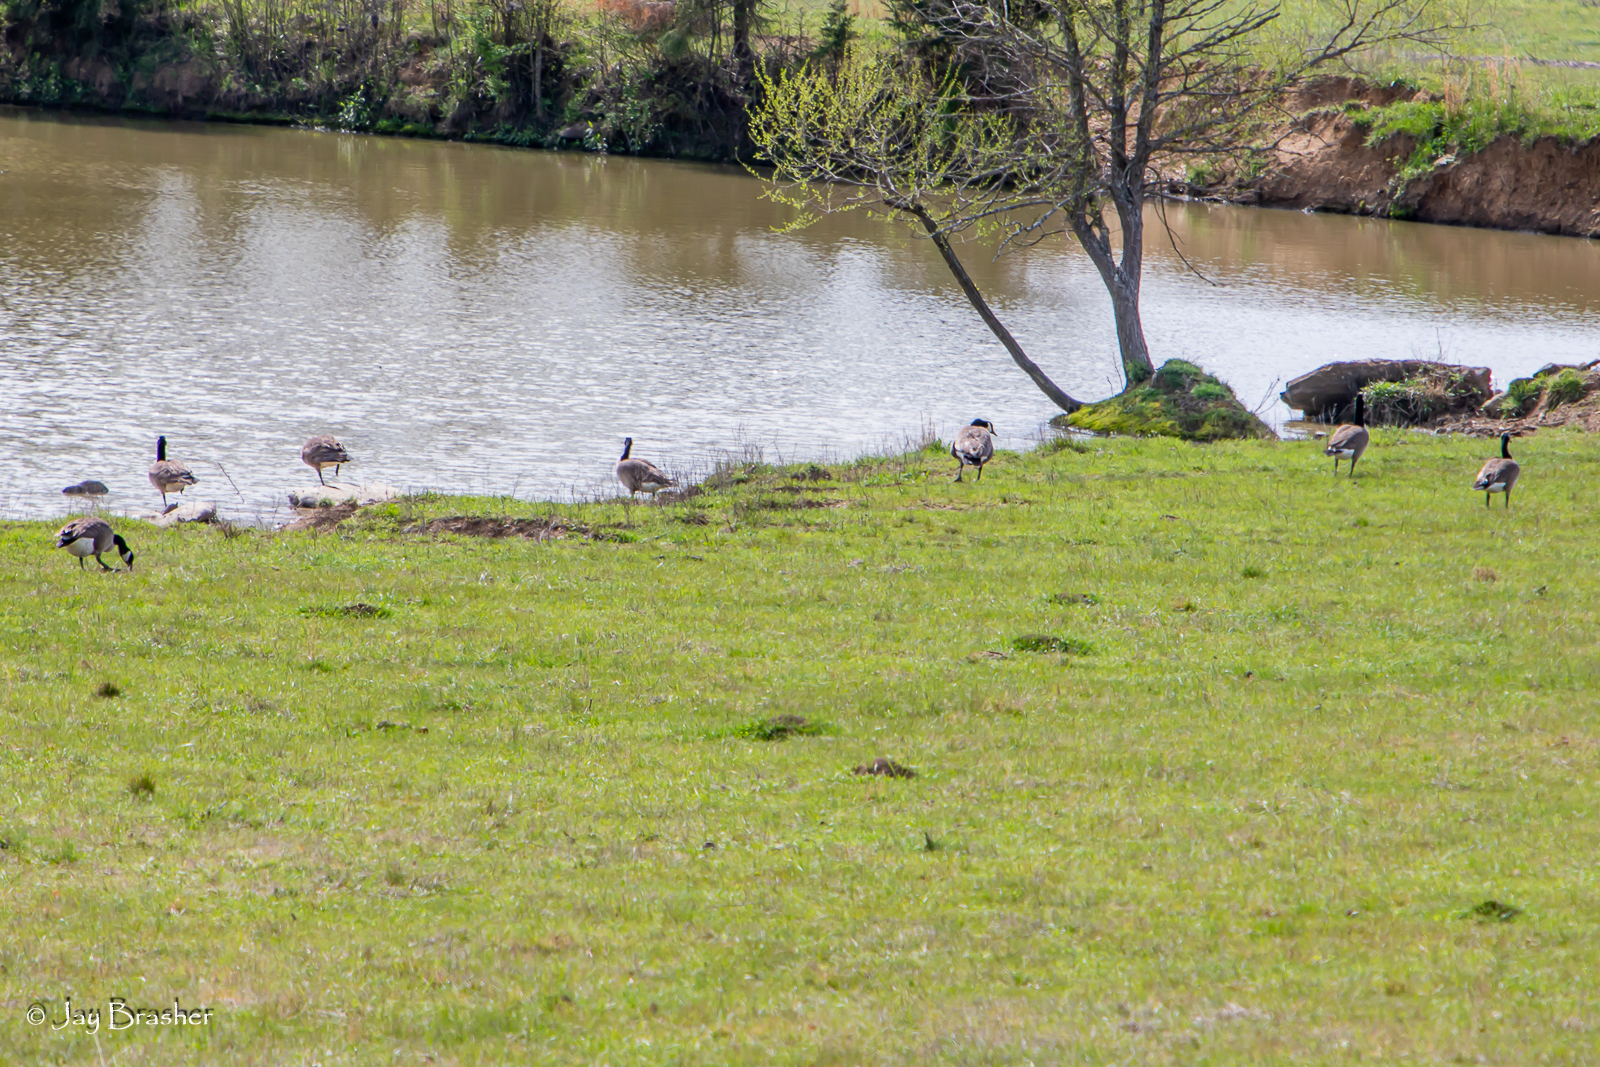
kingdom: Animalia
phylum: Chordata
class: Aves
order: Anseriformes
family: Anatidae
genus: Branta
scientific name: Branta canadensis
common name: Canada goose
